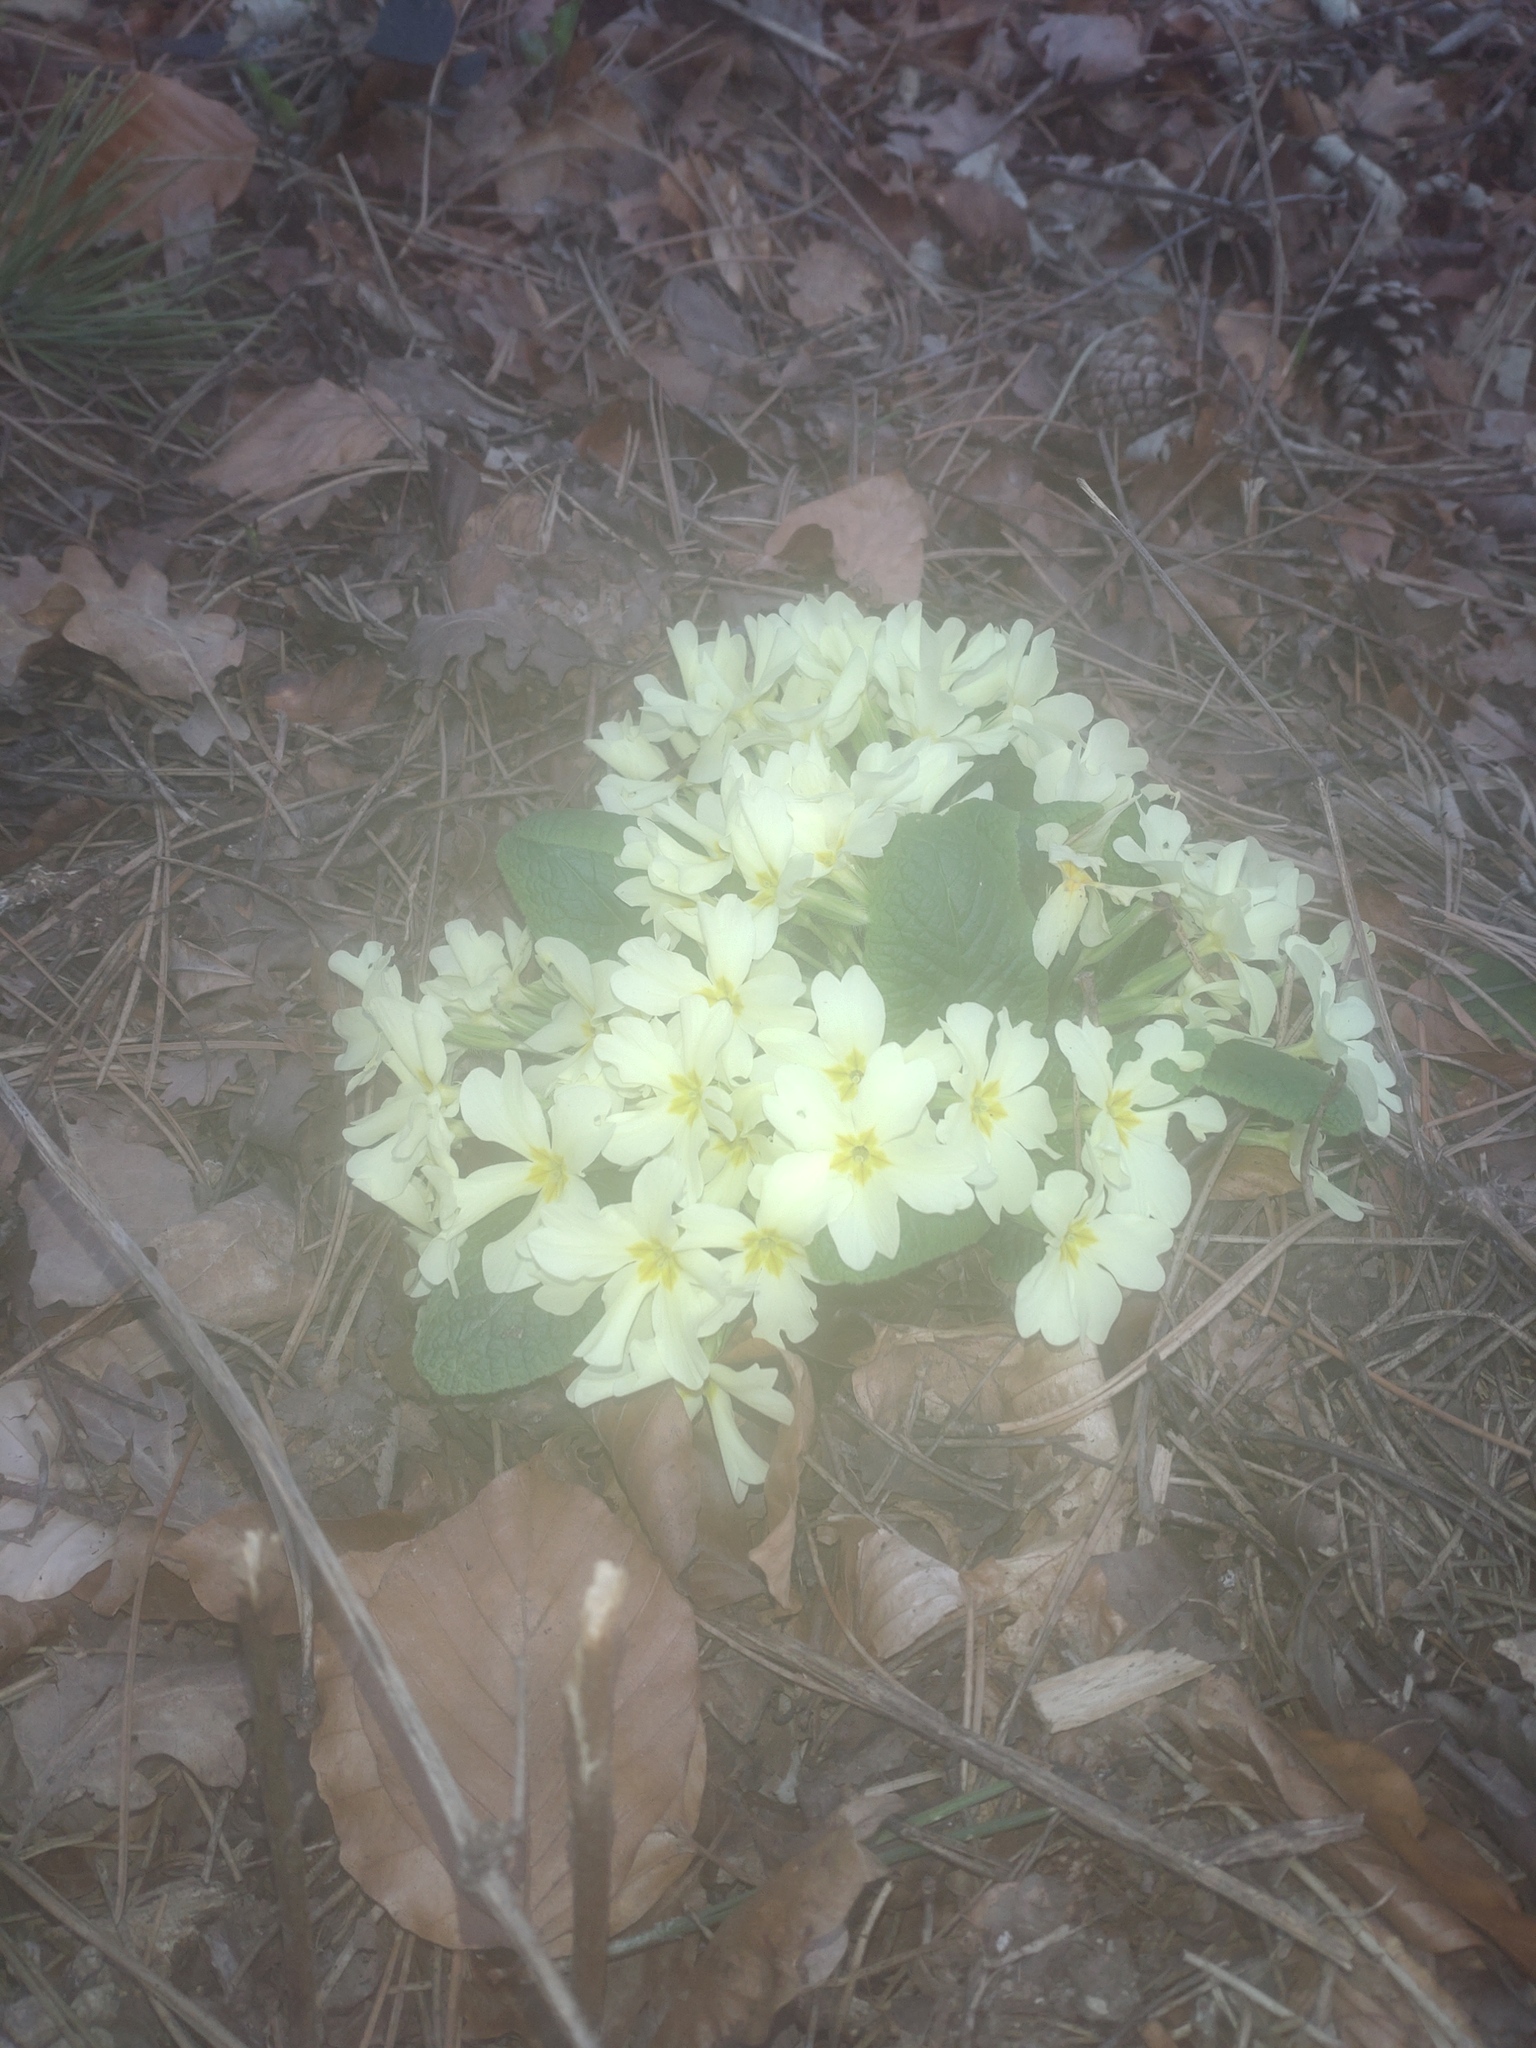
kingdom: Plantae
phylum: Tracheophyta
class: Magnoliopsida
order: Ericales
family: Primulaceae
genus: Primula
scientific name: Primula vulgaris
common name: Primrose
